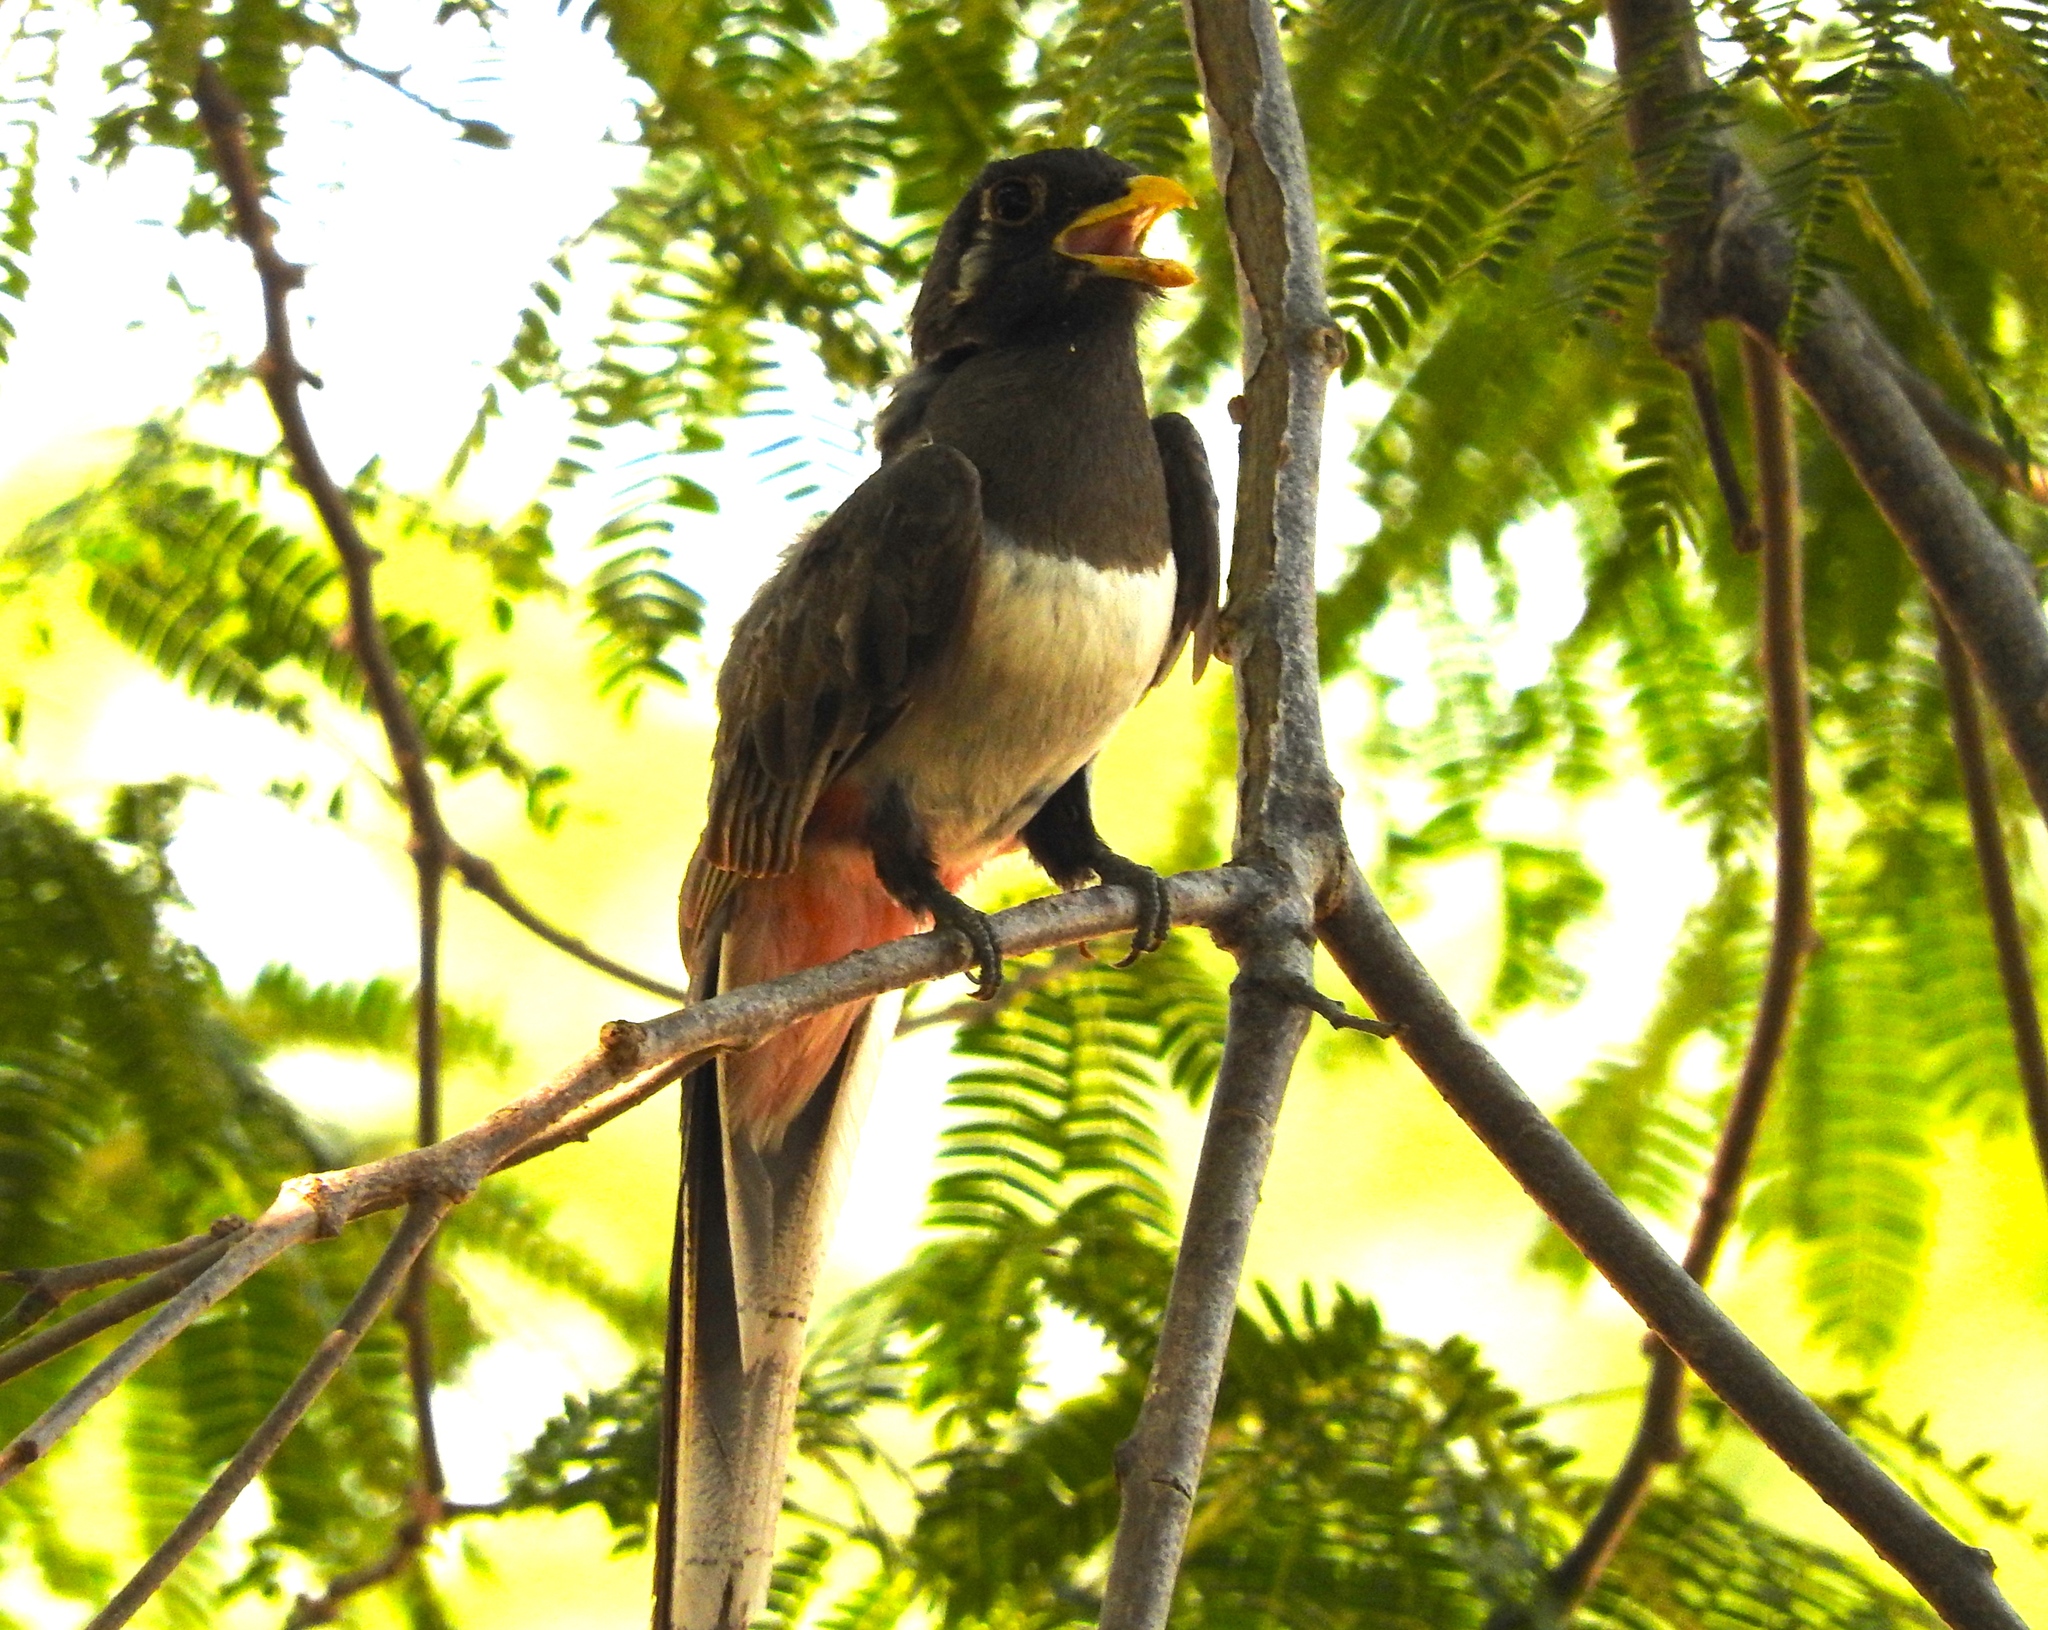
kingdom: Animalia
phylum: Chordata
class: Aves
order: Trogoniformes
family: Trogonidae
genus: Trogon
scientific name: Trogon elegans
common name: Elegant trogon
